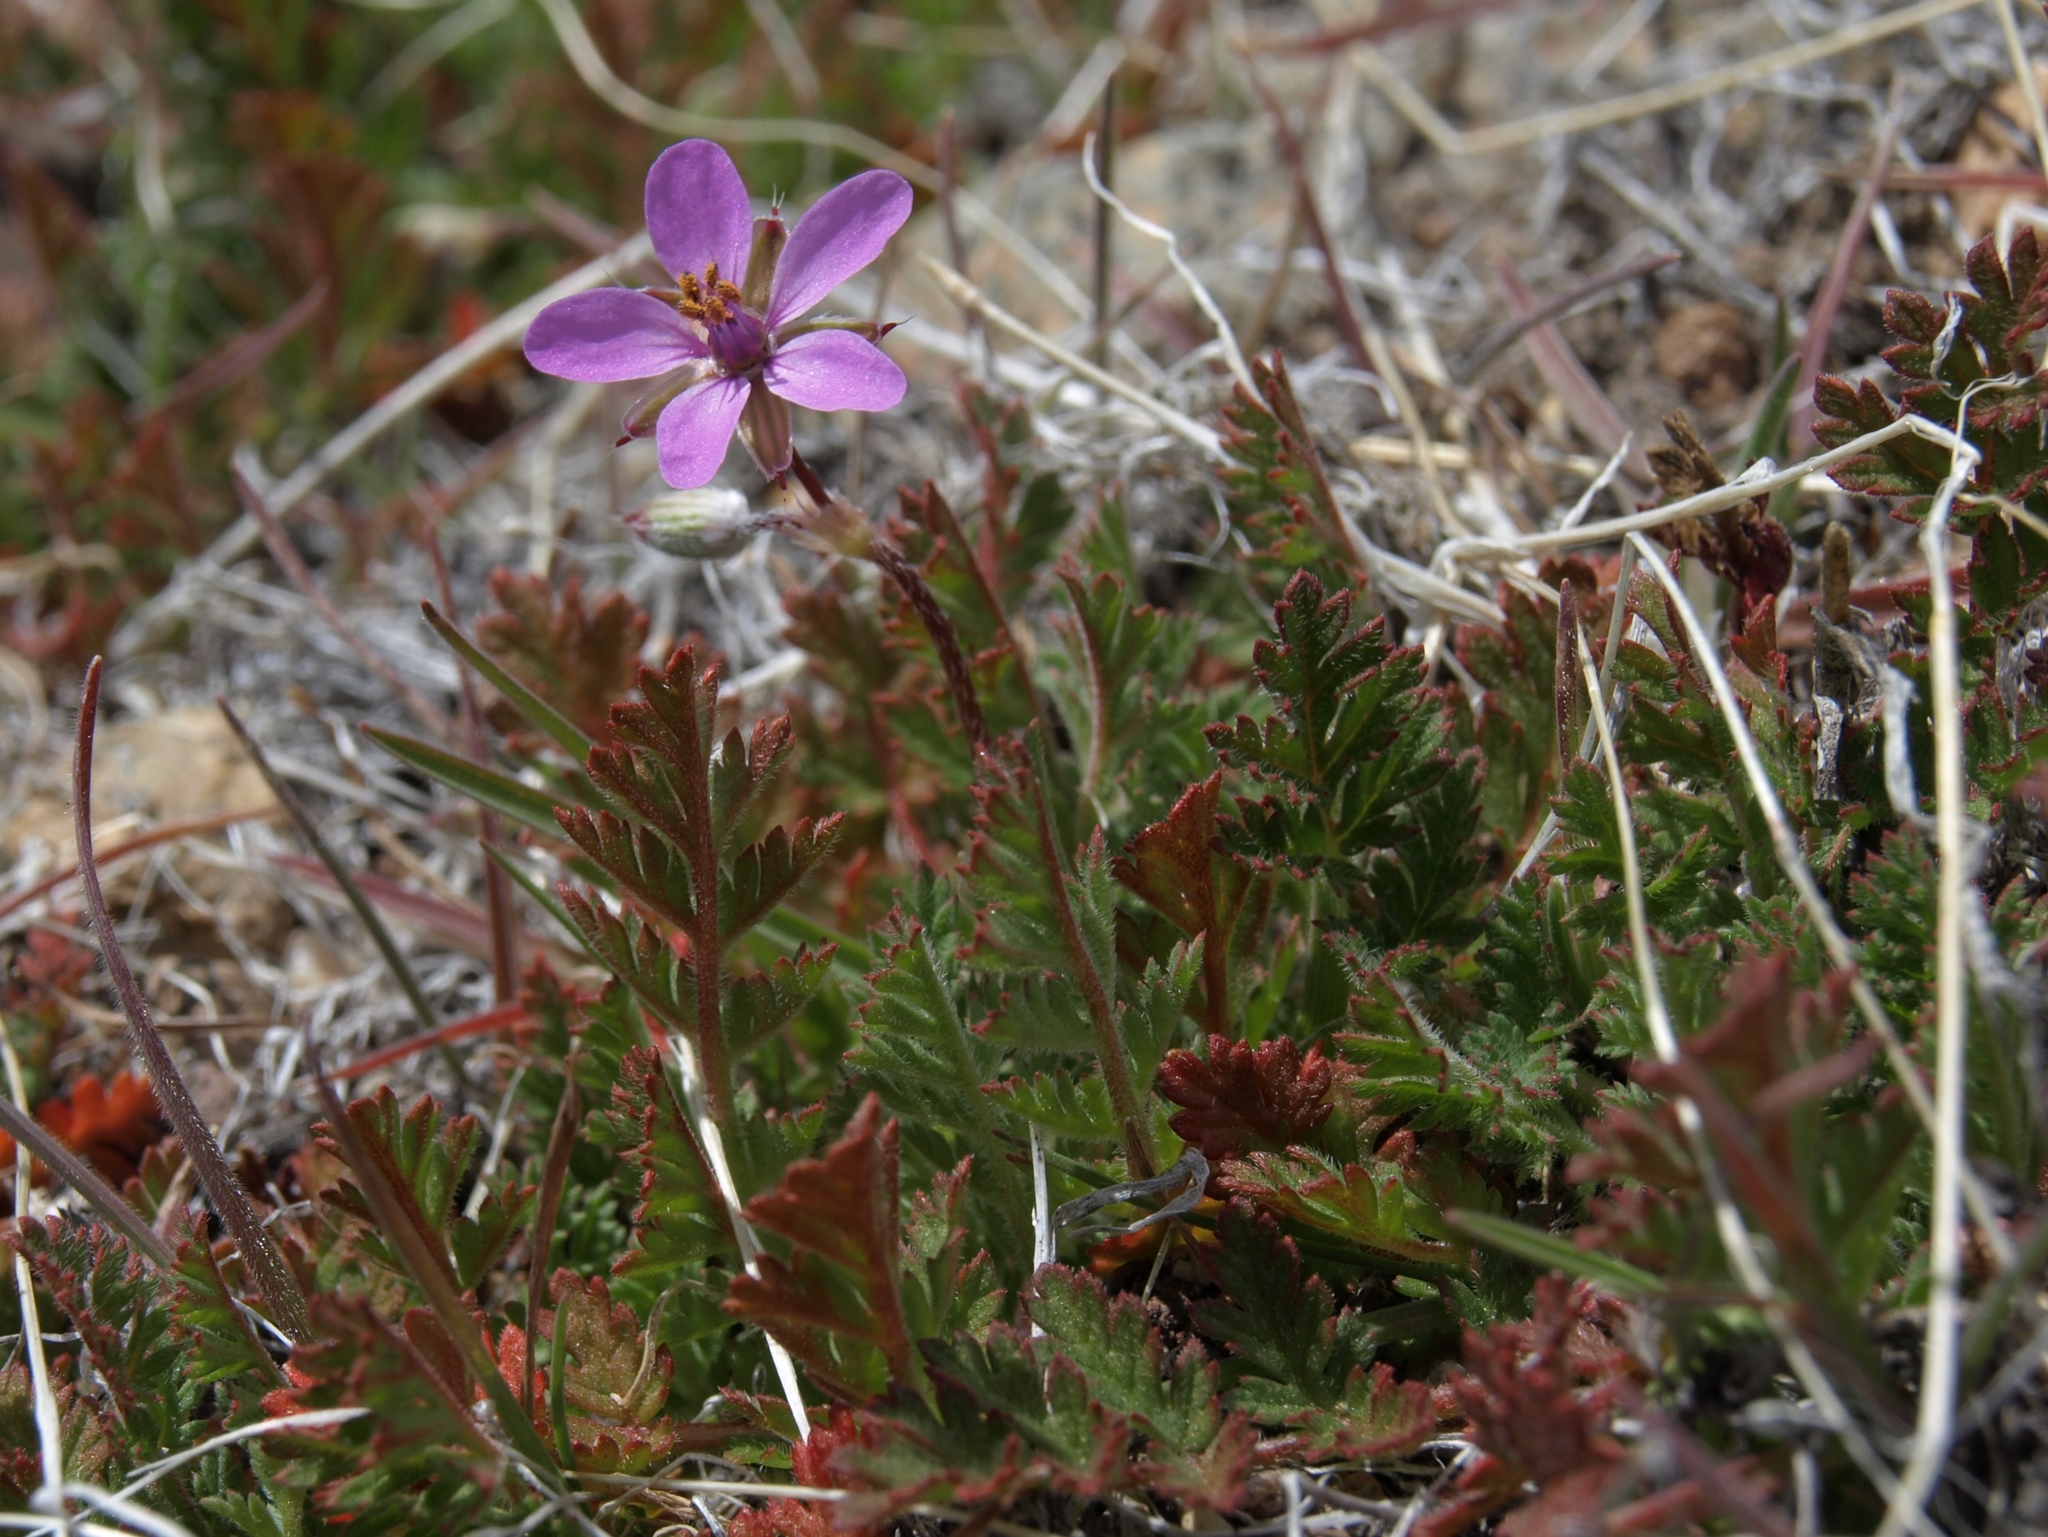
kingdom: Plantae
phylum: Tracheophyta
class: Magnoliopsida
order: Geraniales
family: Geraniaceae
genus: Erodium
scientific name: Erodium cicutarium
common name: Common stork's-bill
